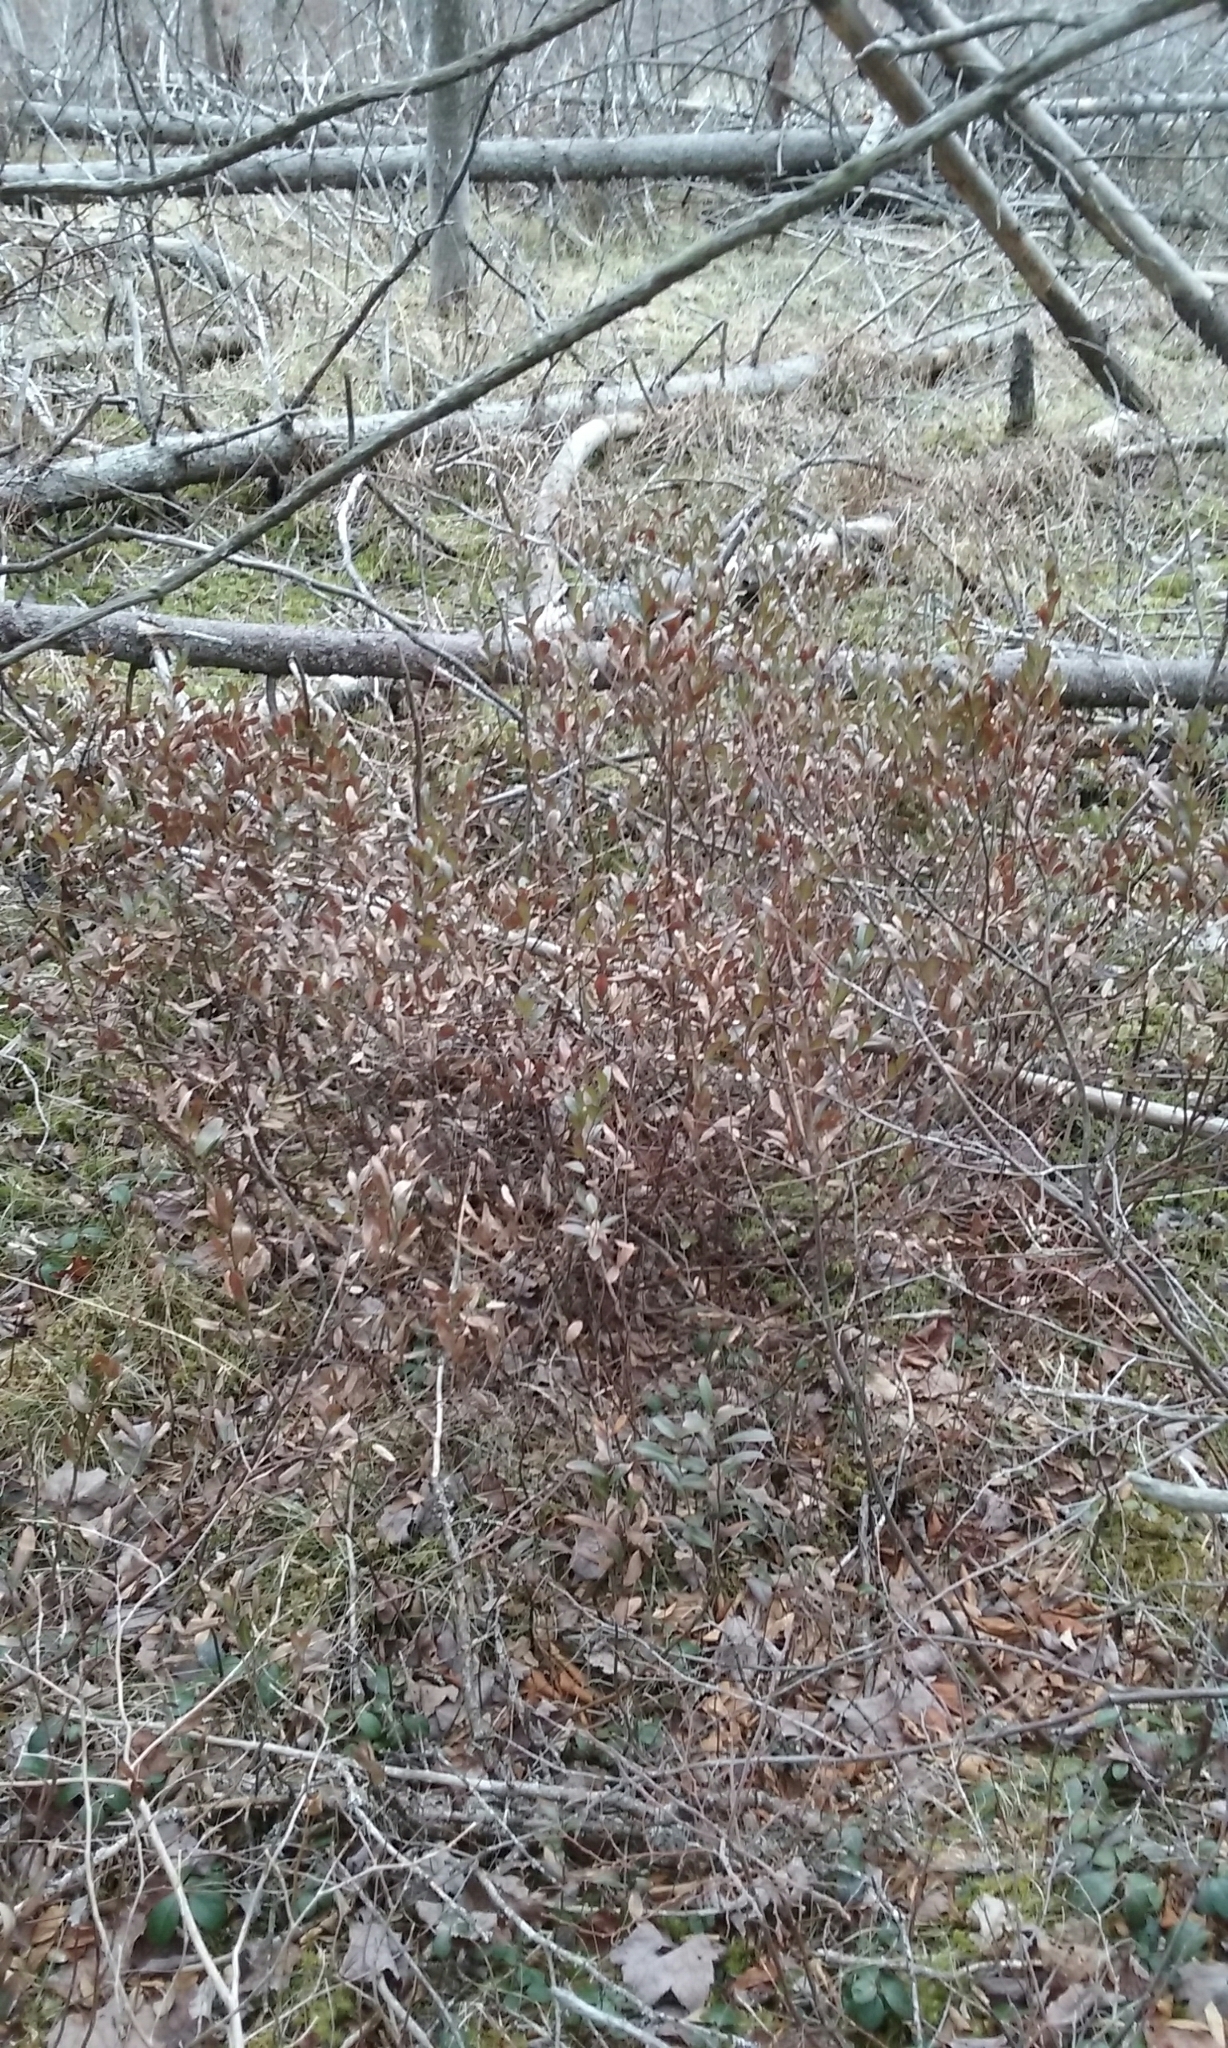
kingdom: Plantae
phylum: Tracheophyta
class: Magnoliopsida
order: Ericales
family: Ericaceae
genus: Chamaedaphne
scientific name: Chamaedaphne calyculata
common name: Leatherleaf
